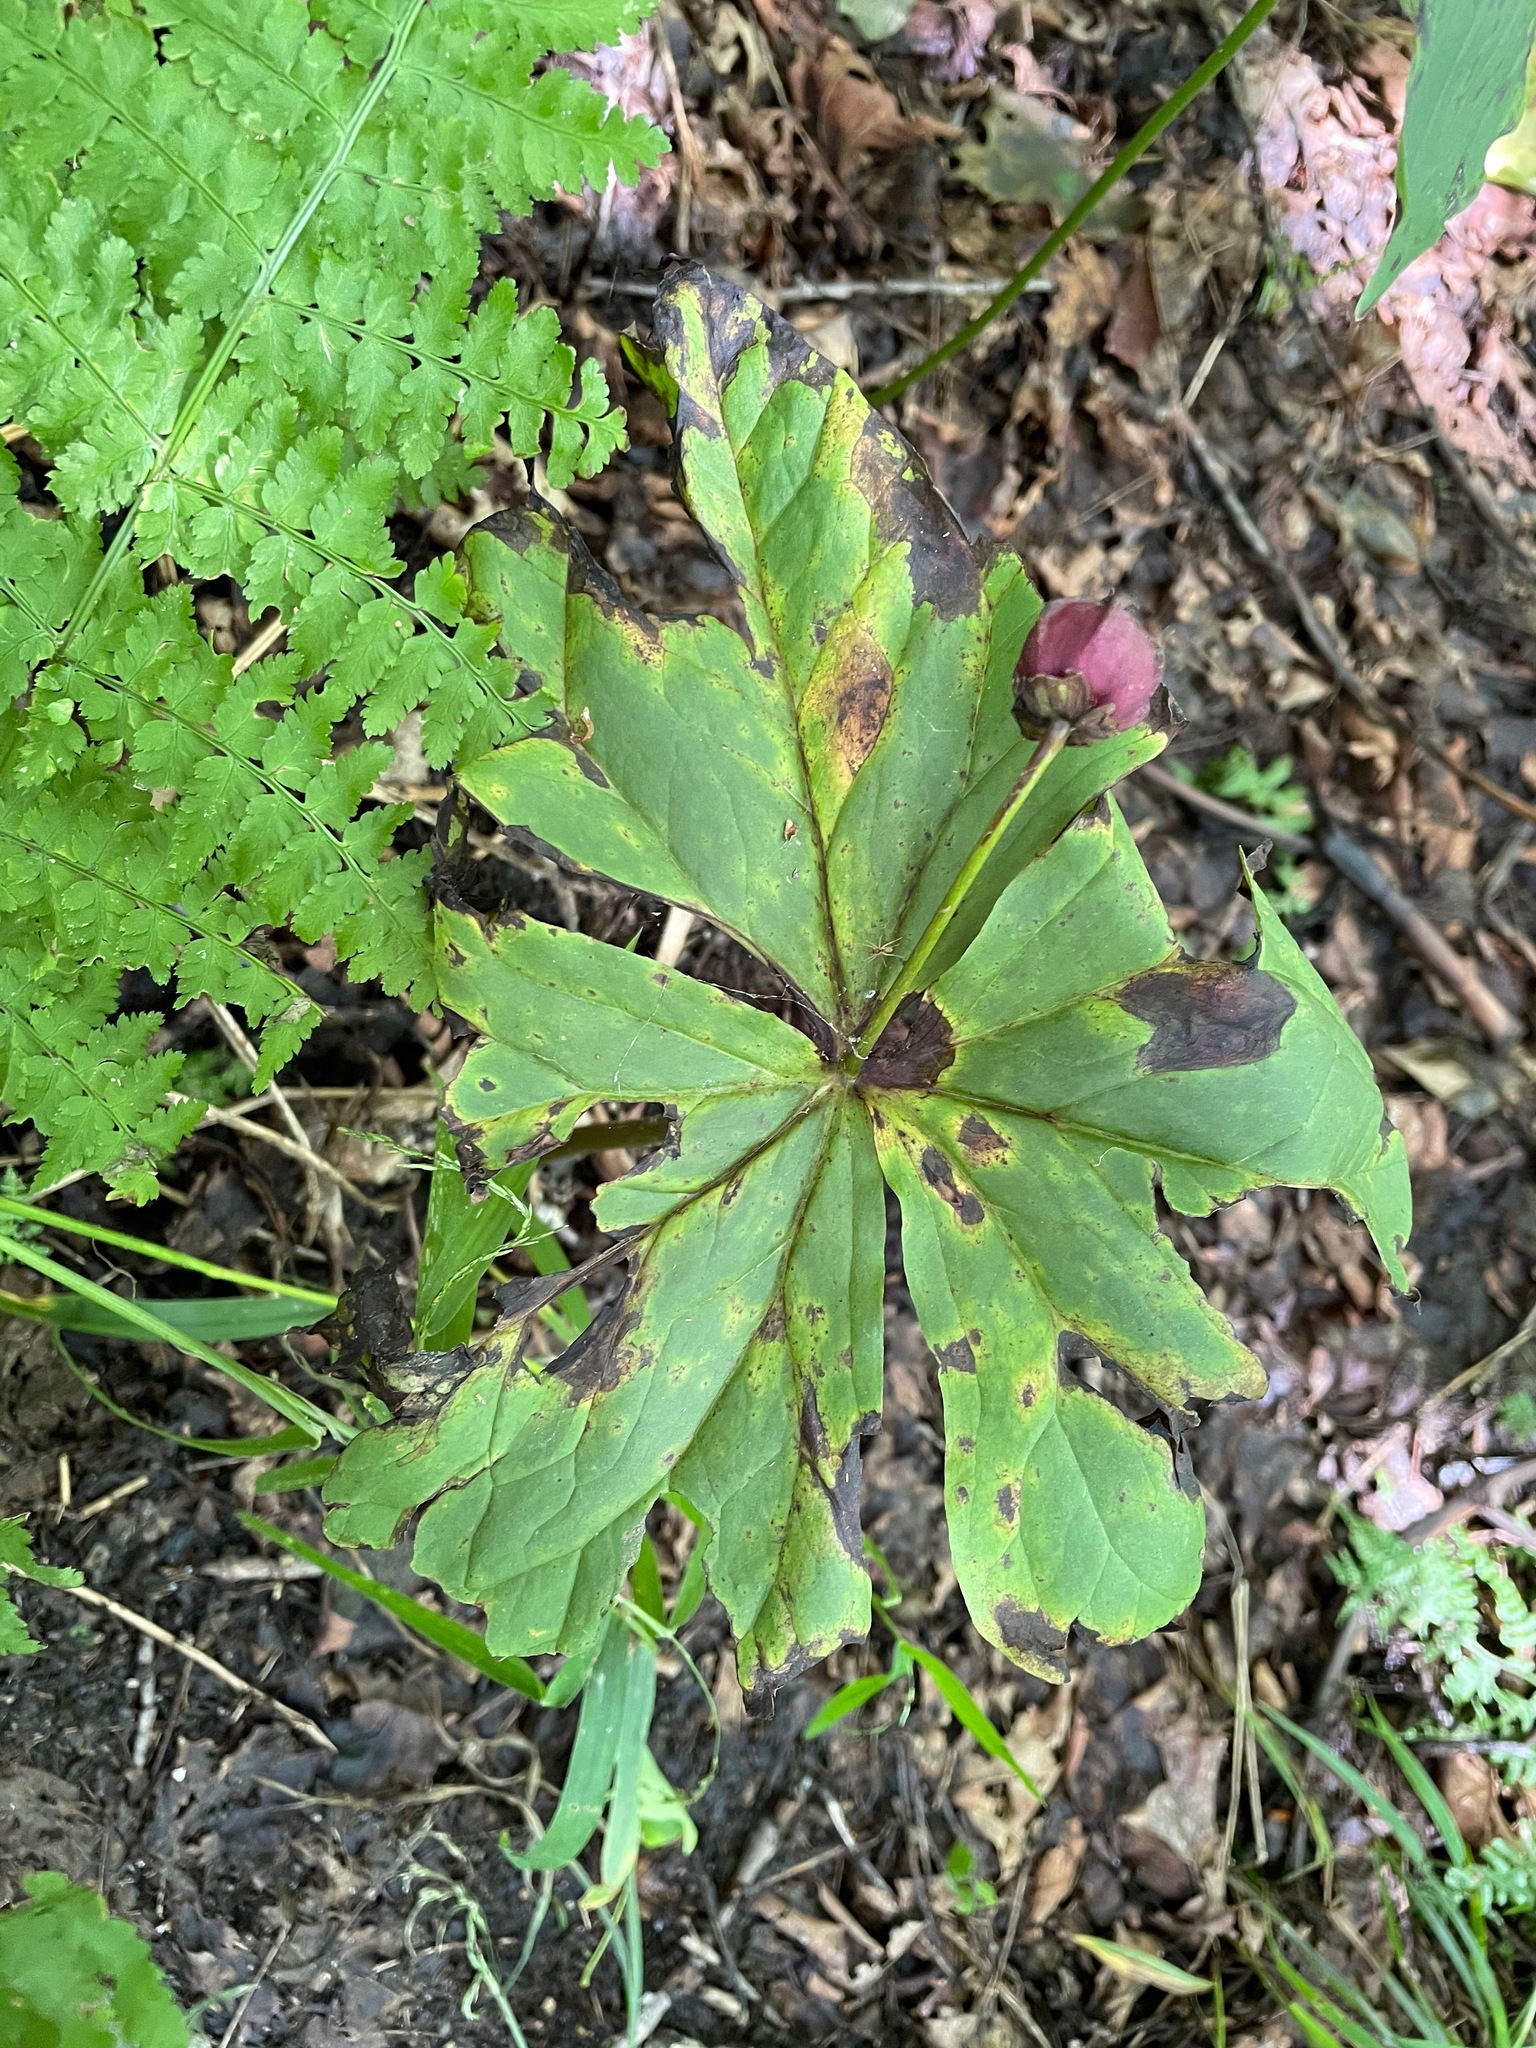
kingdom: Plantae
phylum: Tracheophyta
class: Liliopsida
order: Liliales
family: Melanthiaceae
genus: Trillium
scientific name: Trillium erectum
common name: Purple trillium
